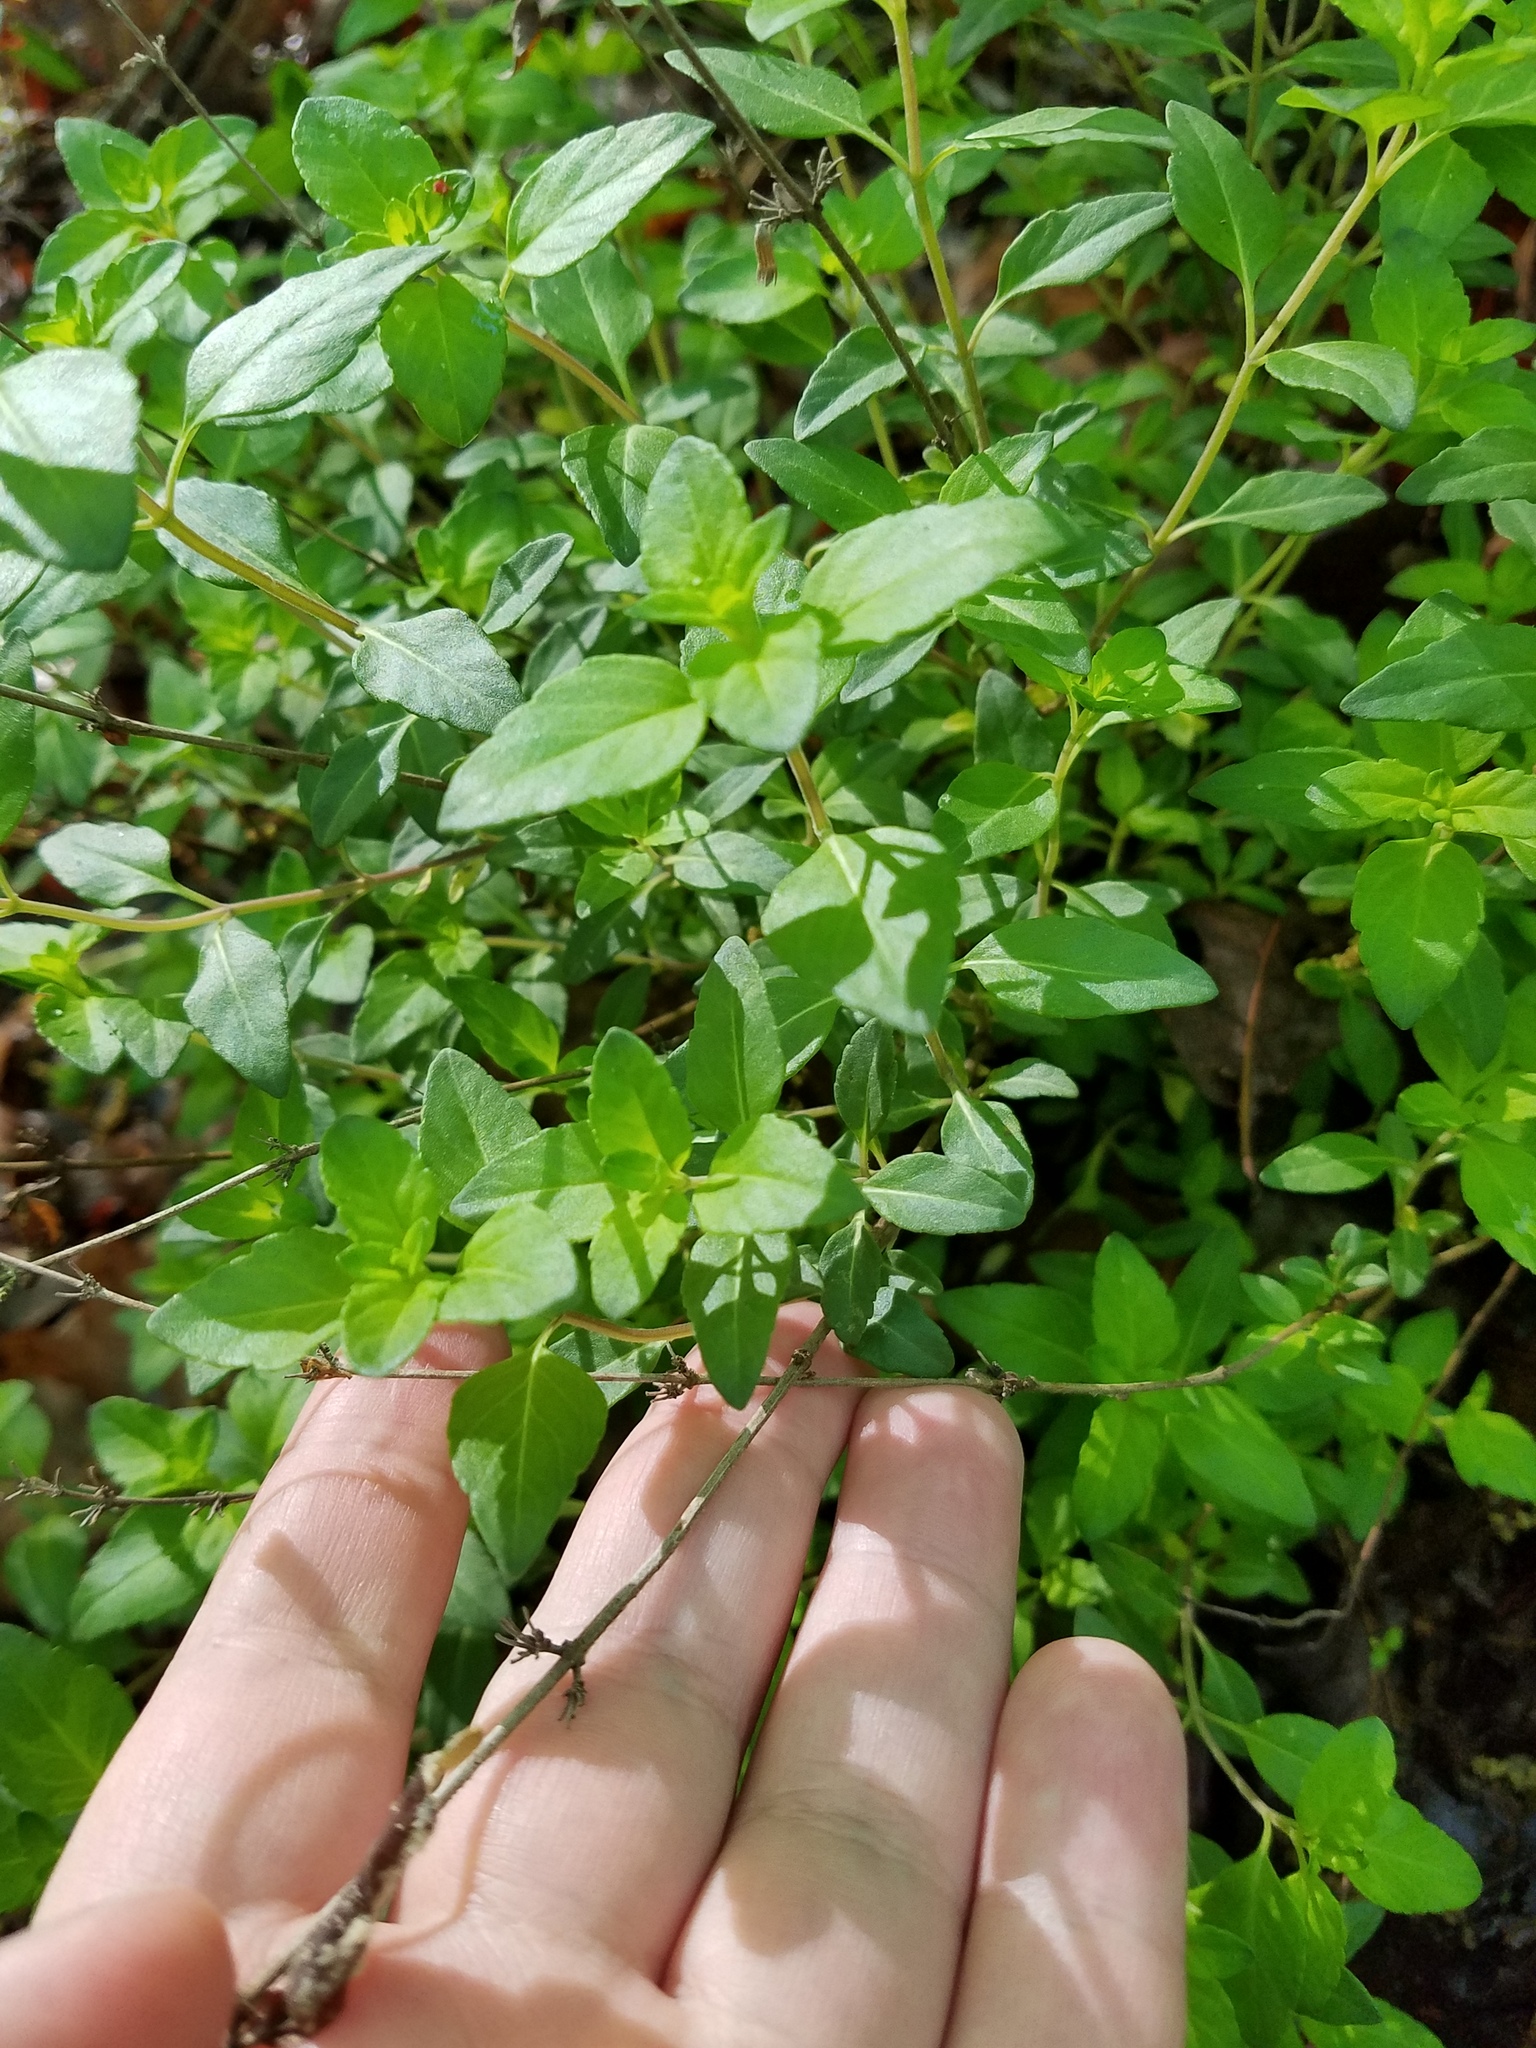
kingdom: Plantae
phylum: Tracheophyta
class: Magnoliopsida
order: Lamiales
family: Lamiaceae
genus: Clinopodium
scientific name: Clinopodium carolinianum
